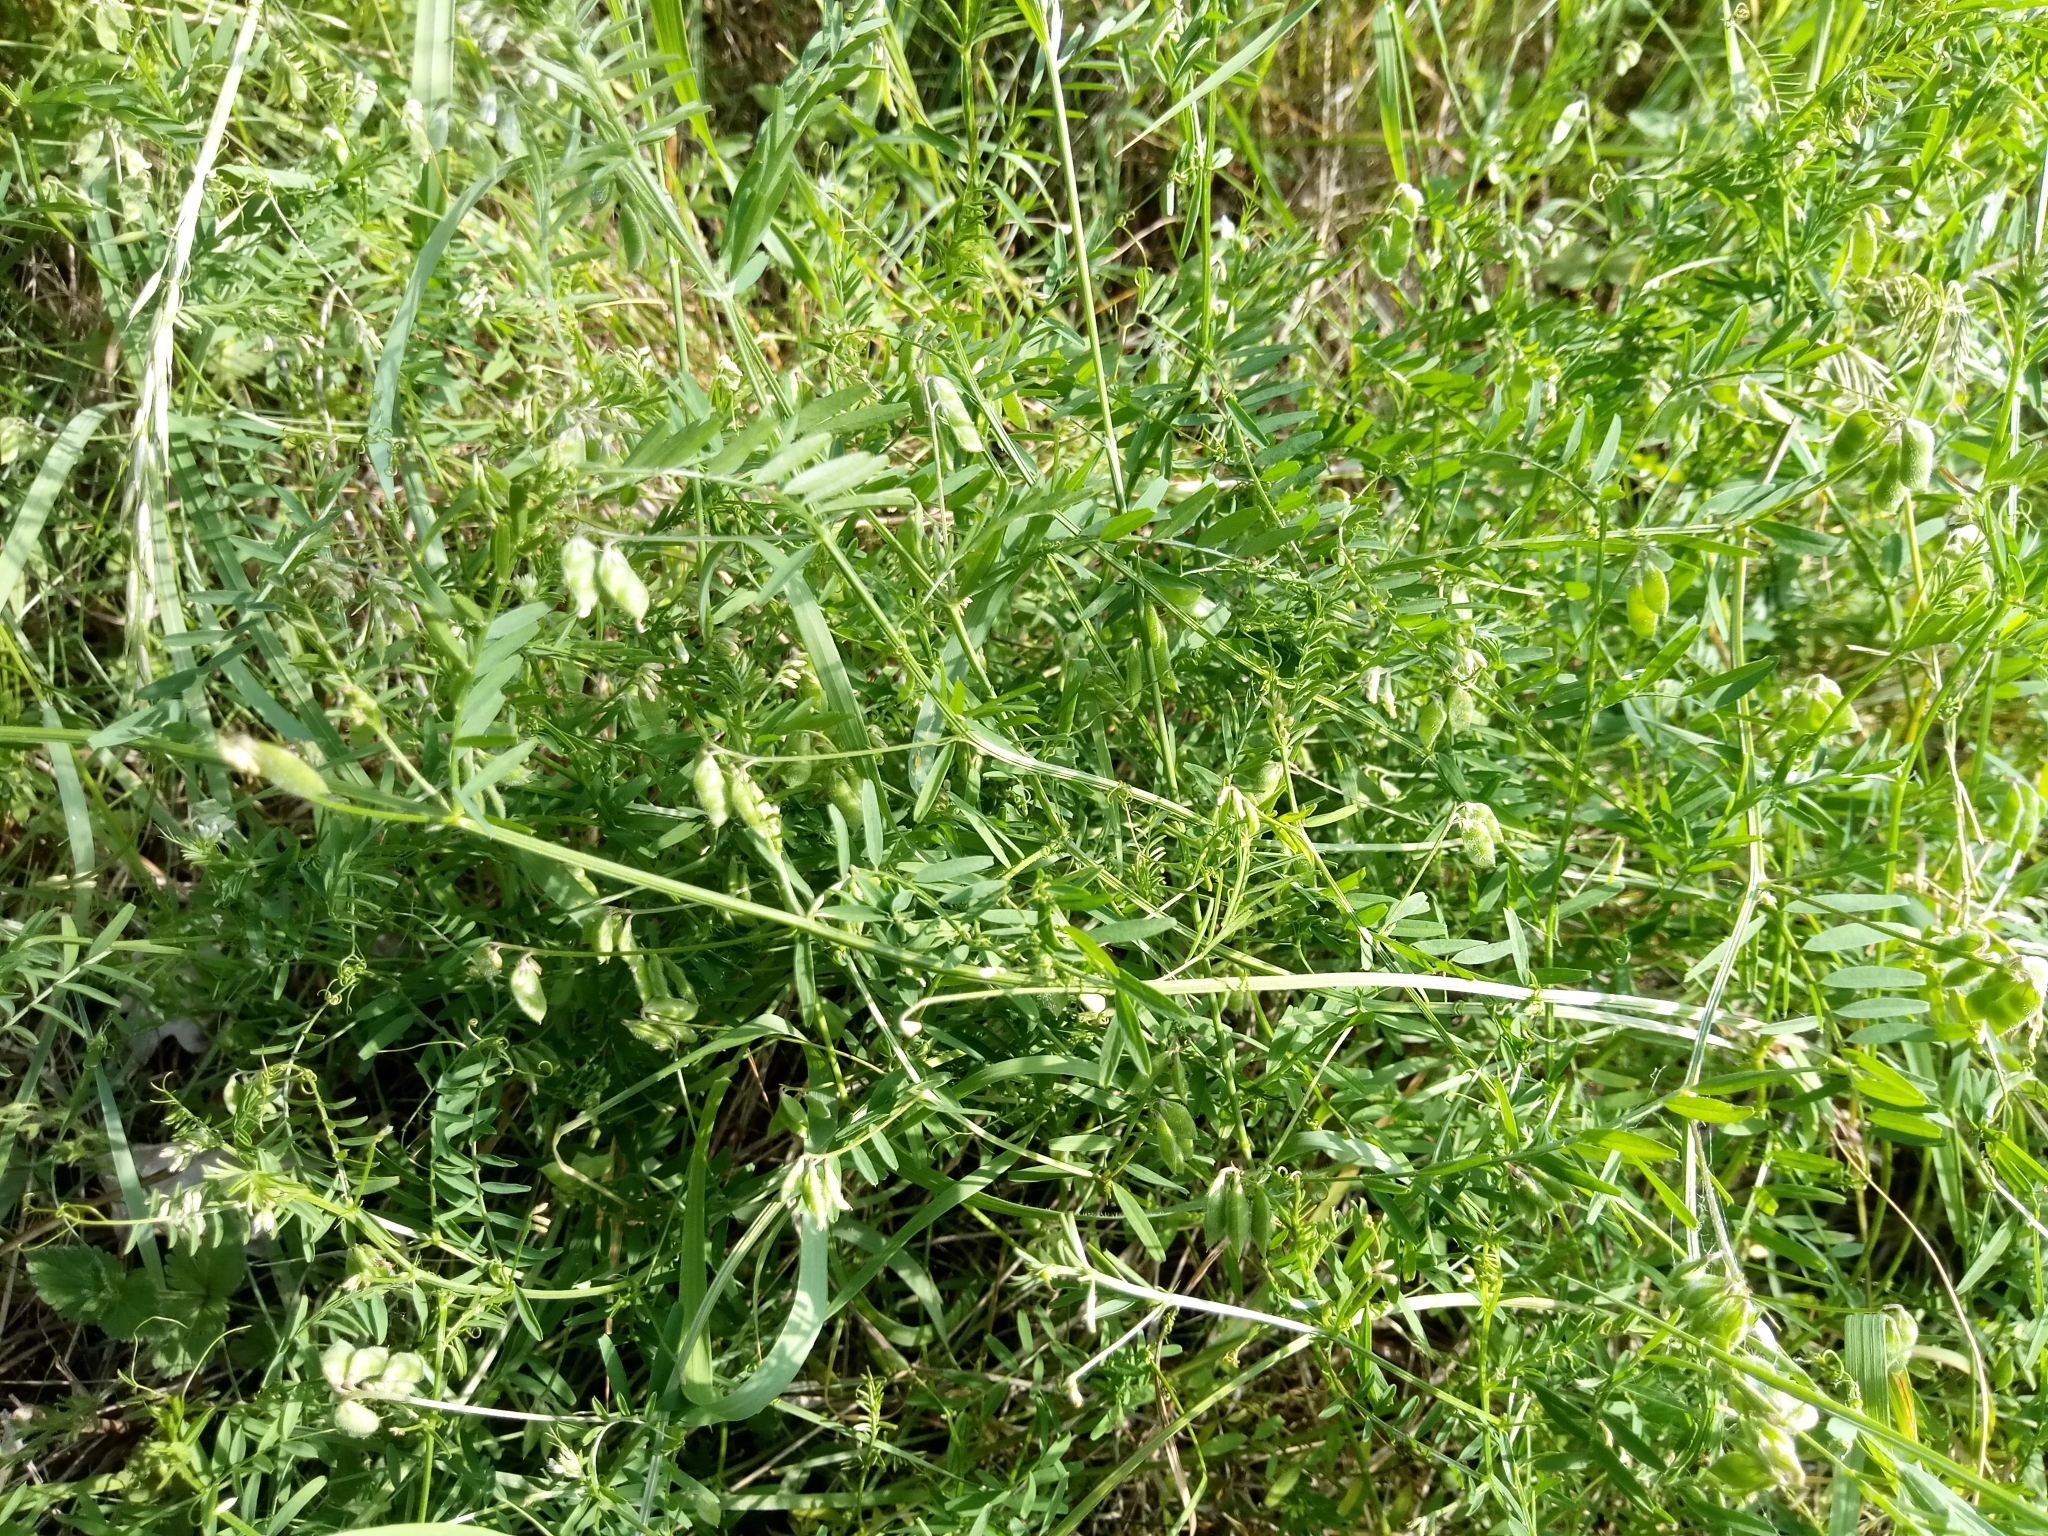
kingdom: Plantae
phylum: Tracheophyta
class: Magnoliopsida
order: Fabales
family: Fabaceae
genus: Vicia
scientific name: Vicia hirsuta
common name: Tiny vetch
